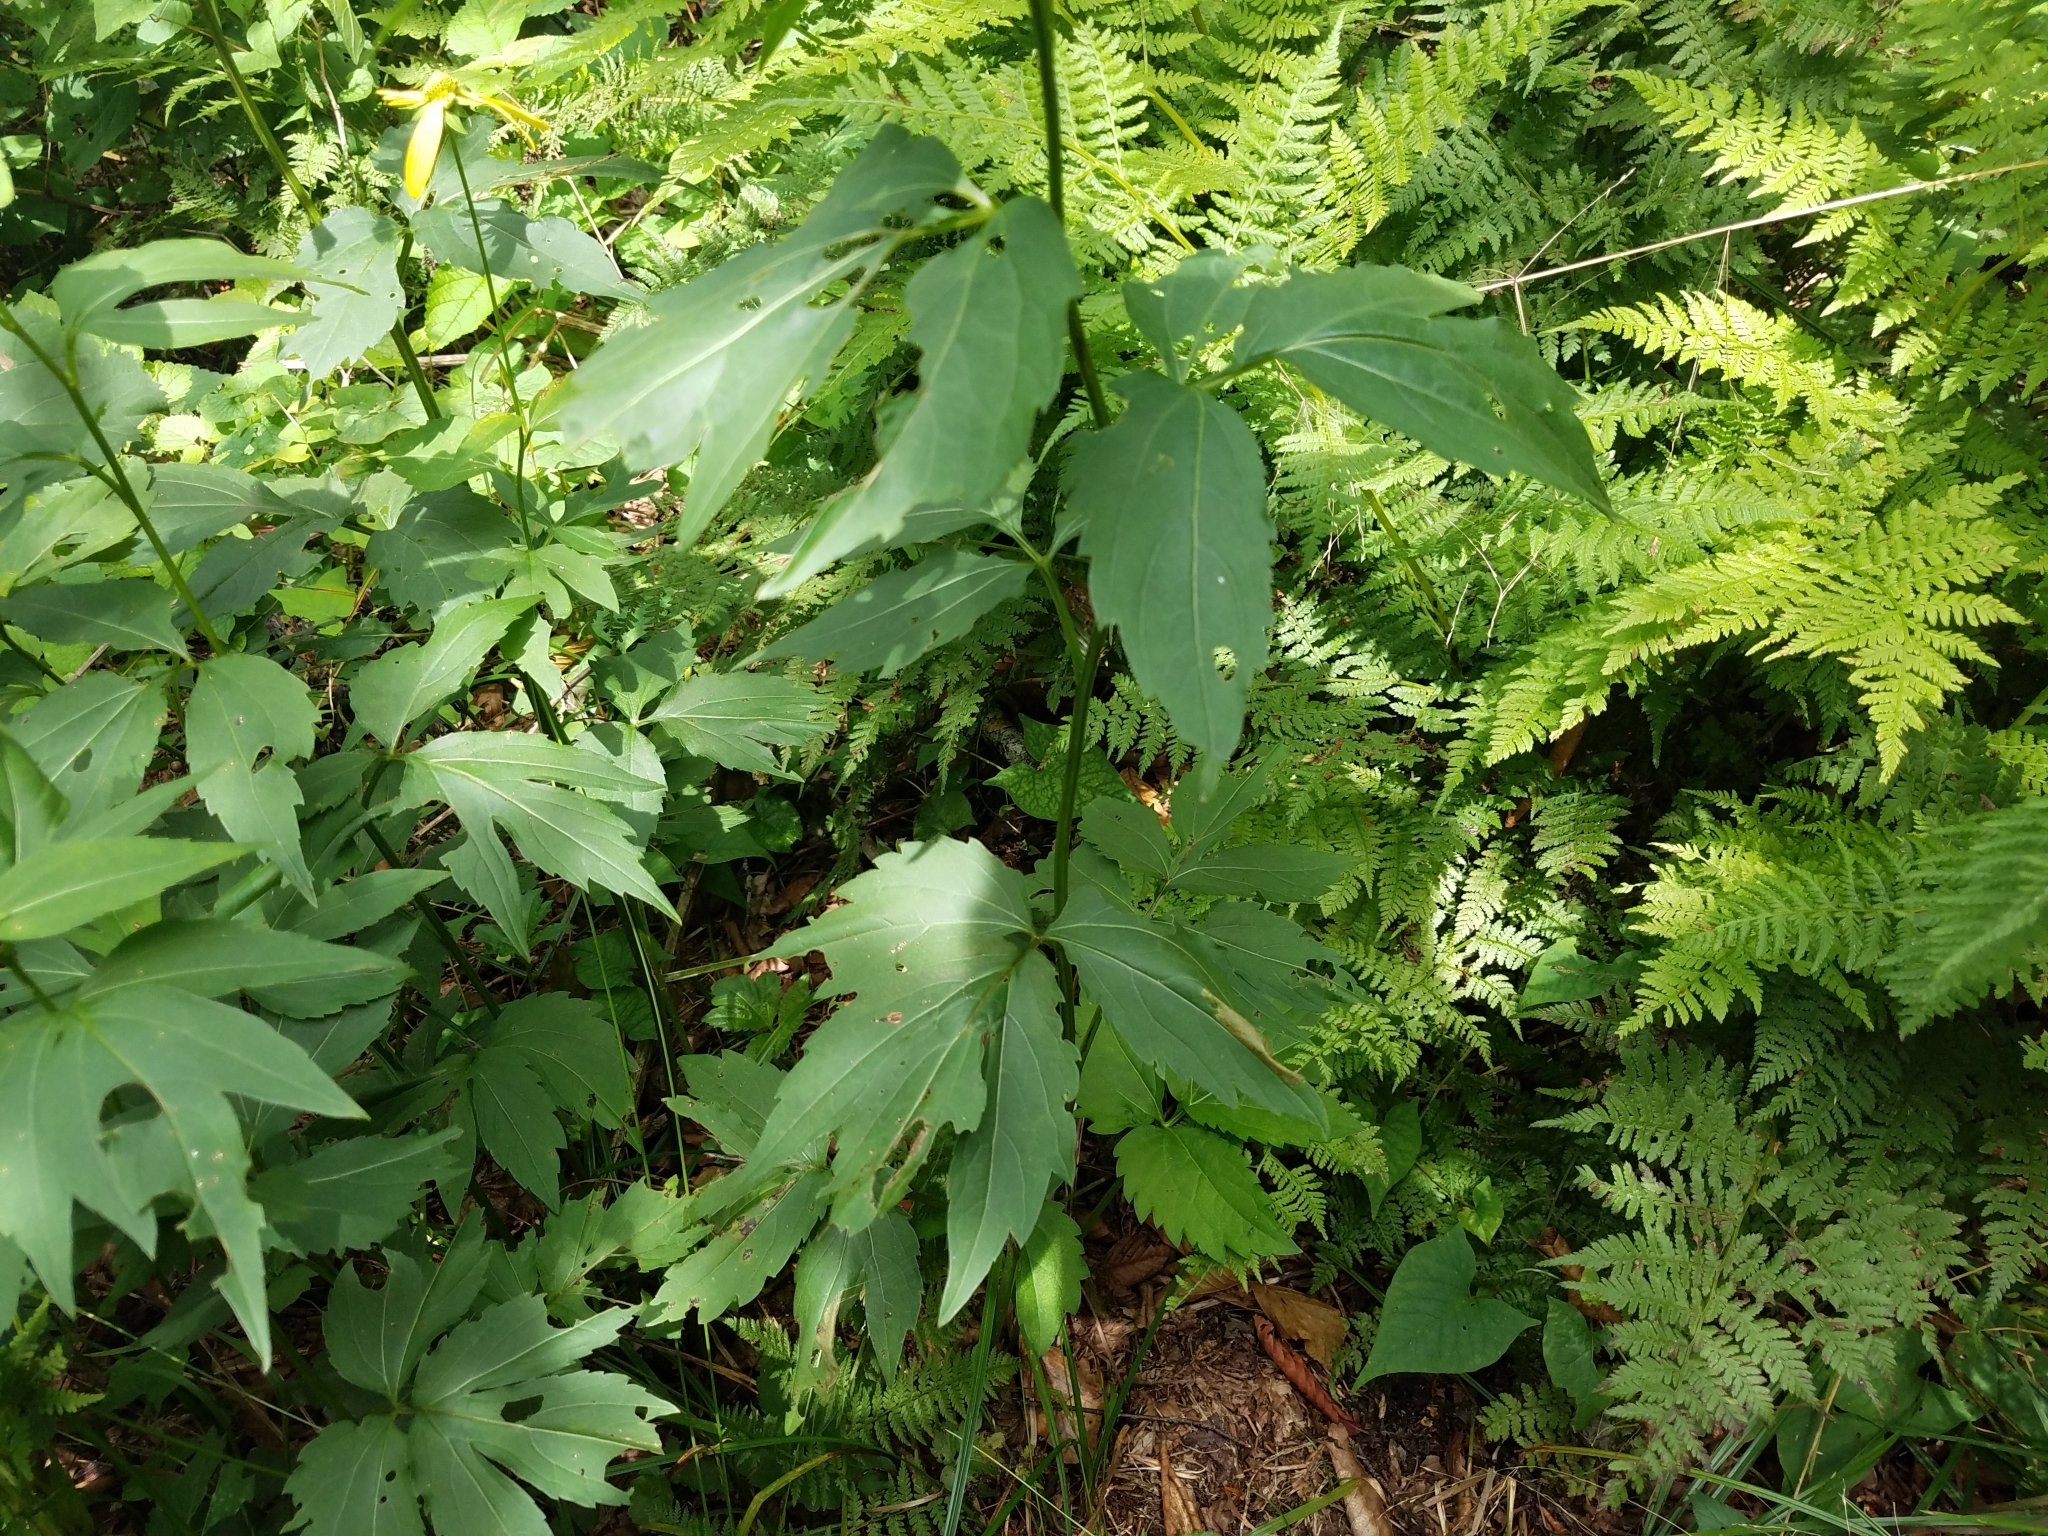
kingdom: Plantae
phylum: Tracheophyta
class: Magnoliopsida
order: Asterales
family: Asteraceae
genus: Rudbeckia
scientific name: Rudbeckia laciniata
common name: Coneflower
